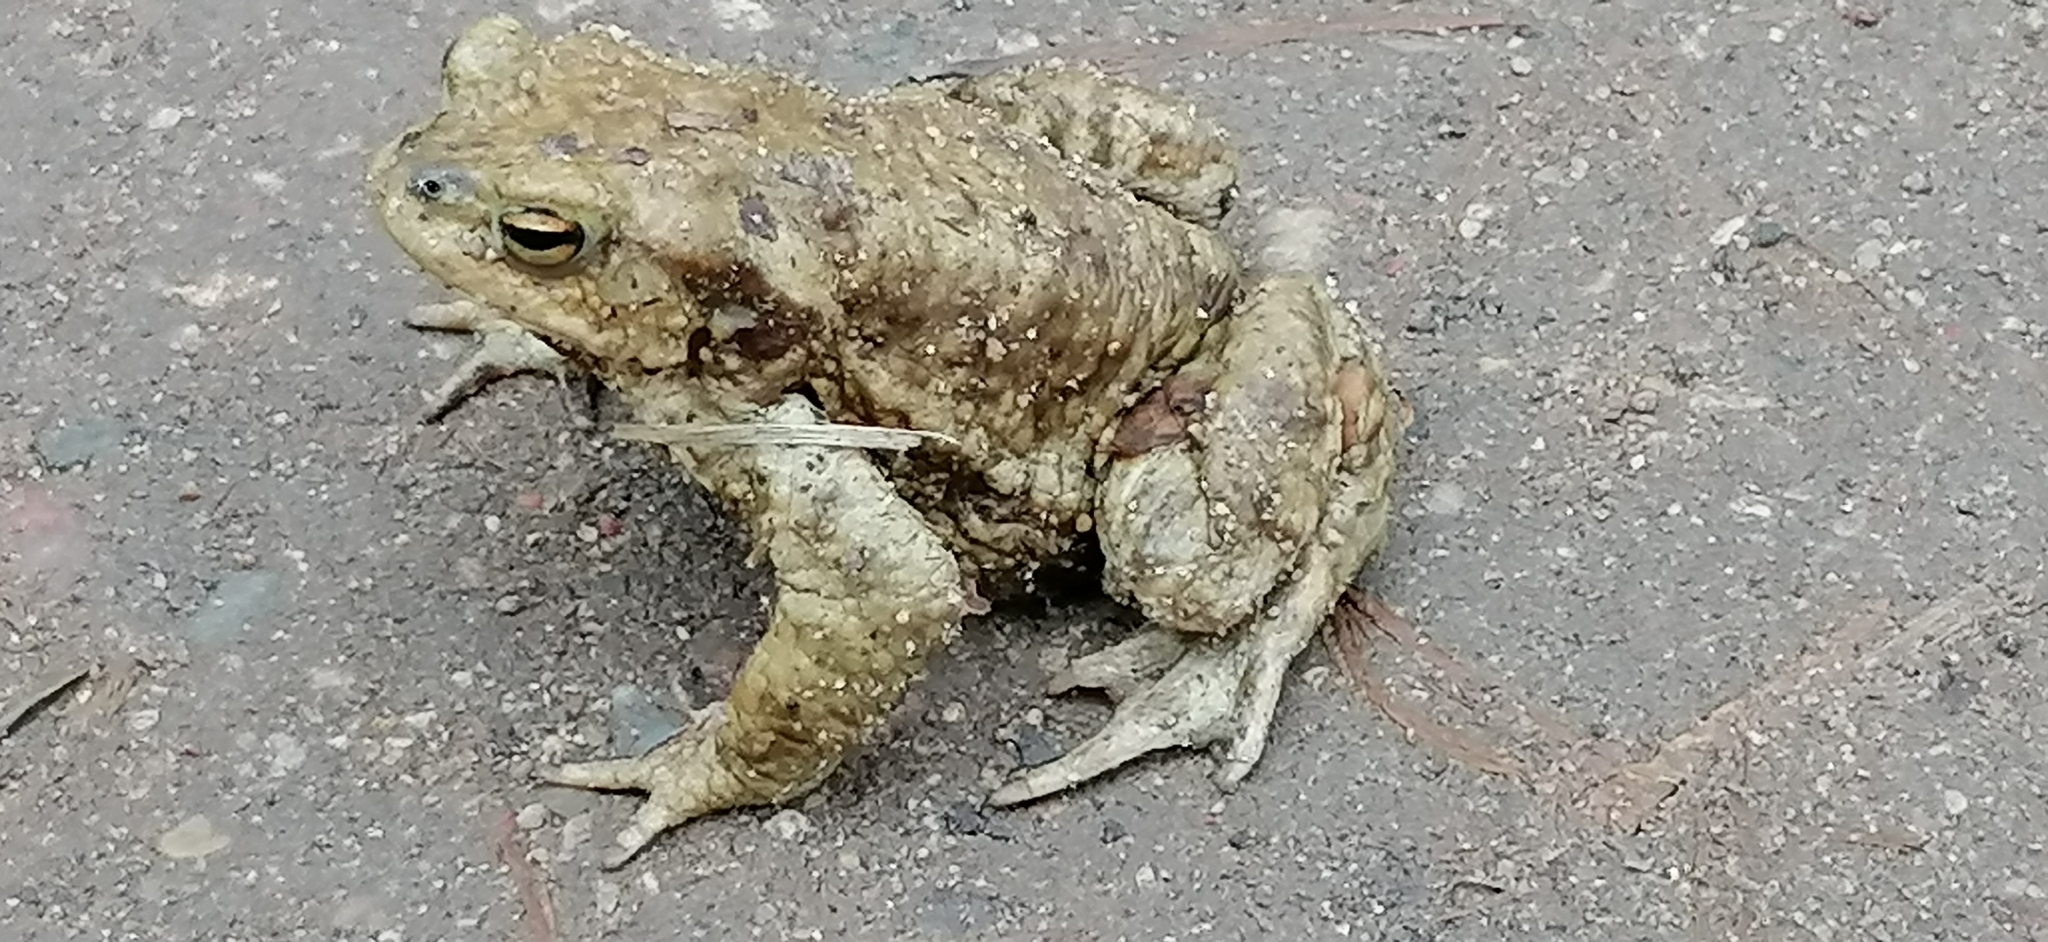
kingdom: Animalia
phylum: Chordata
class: Amphibia
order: Anura
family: Bufonidae
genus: Bufo
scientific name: Bufo bufo
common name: Common toad
